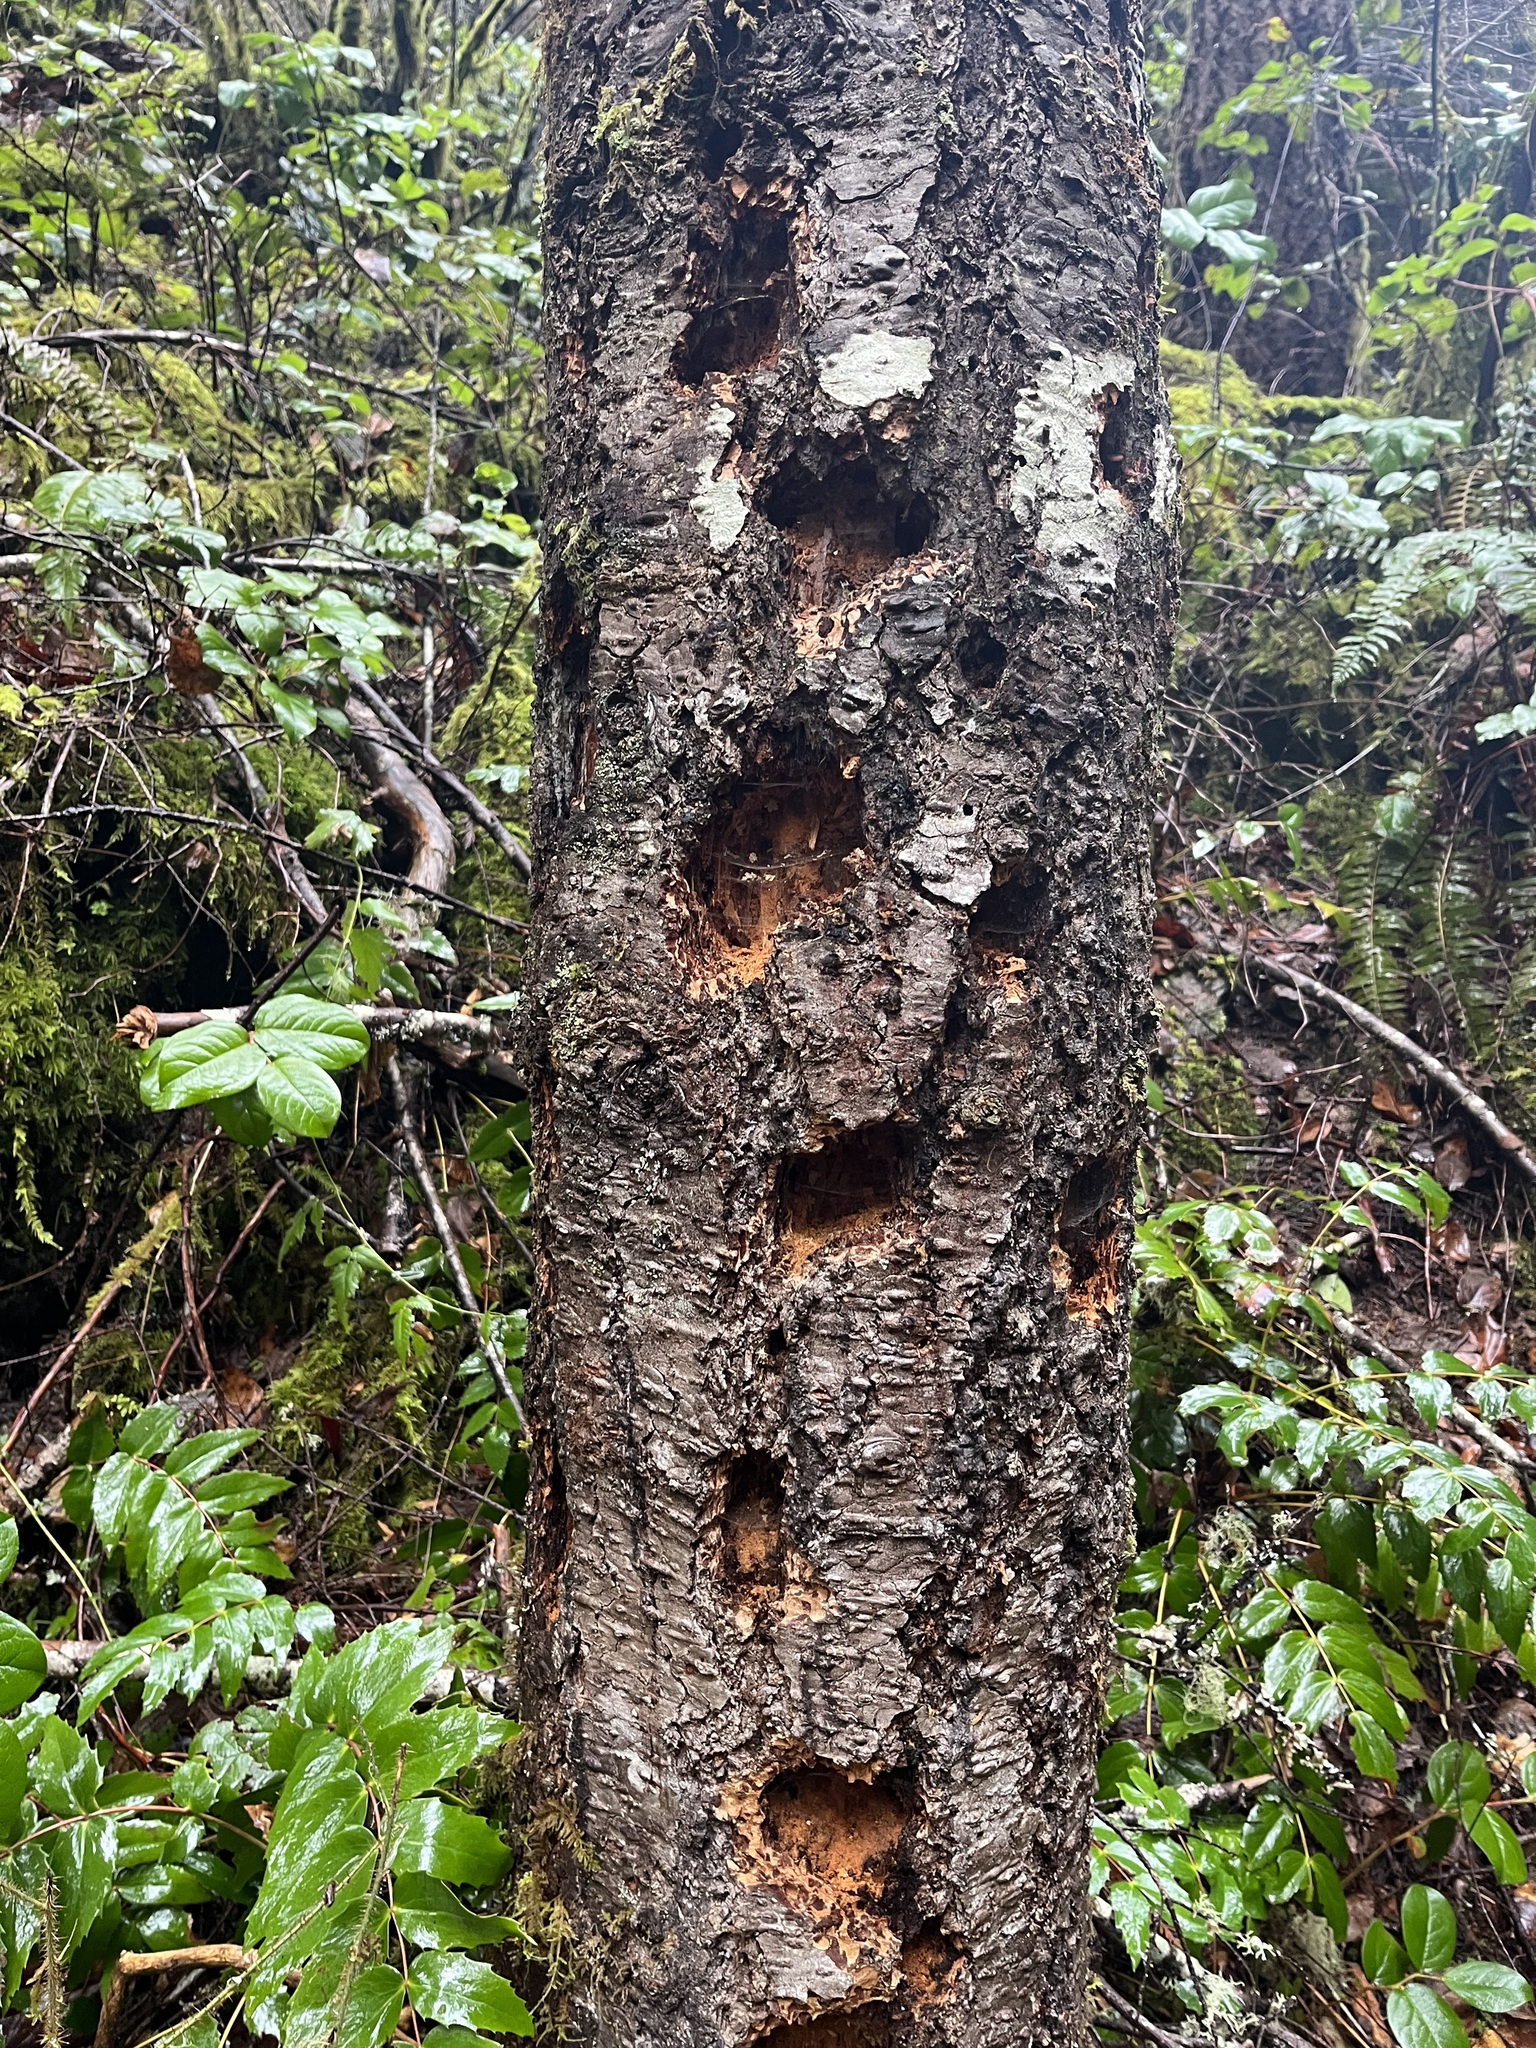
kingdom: Animalia
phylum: Chordata
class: Aves
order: Piciformes
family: Picidae
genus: Dryocopus
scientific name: Dryocopus pileatus
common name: Pileated woodpecker
